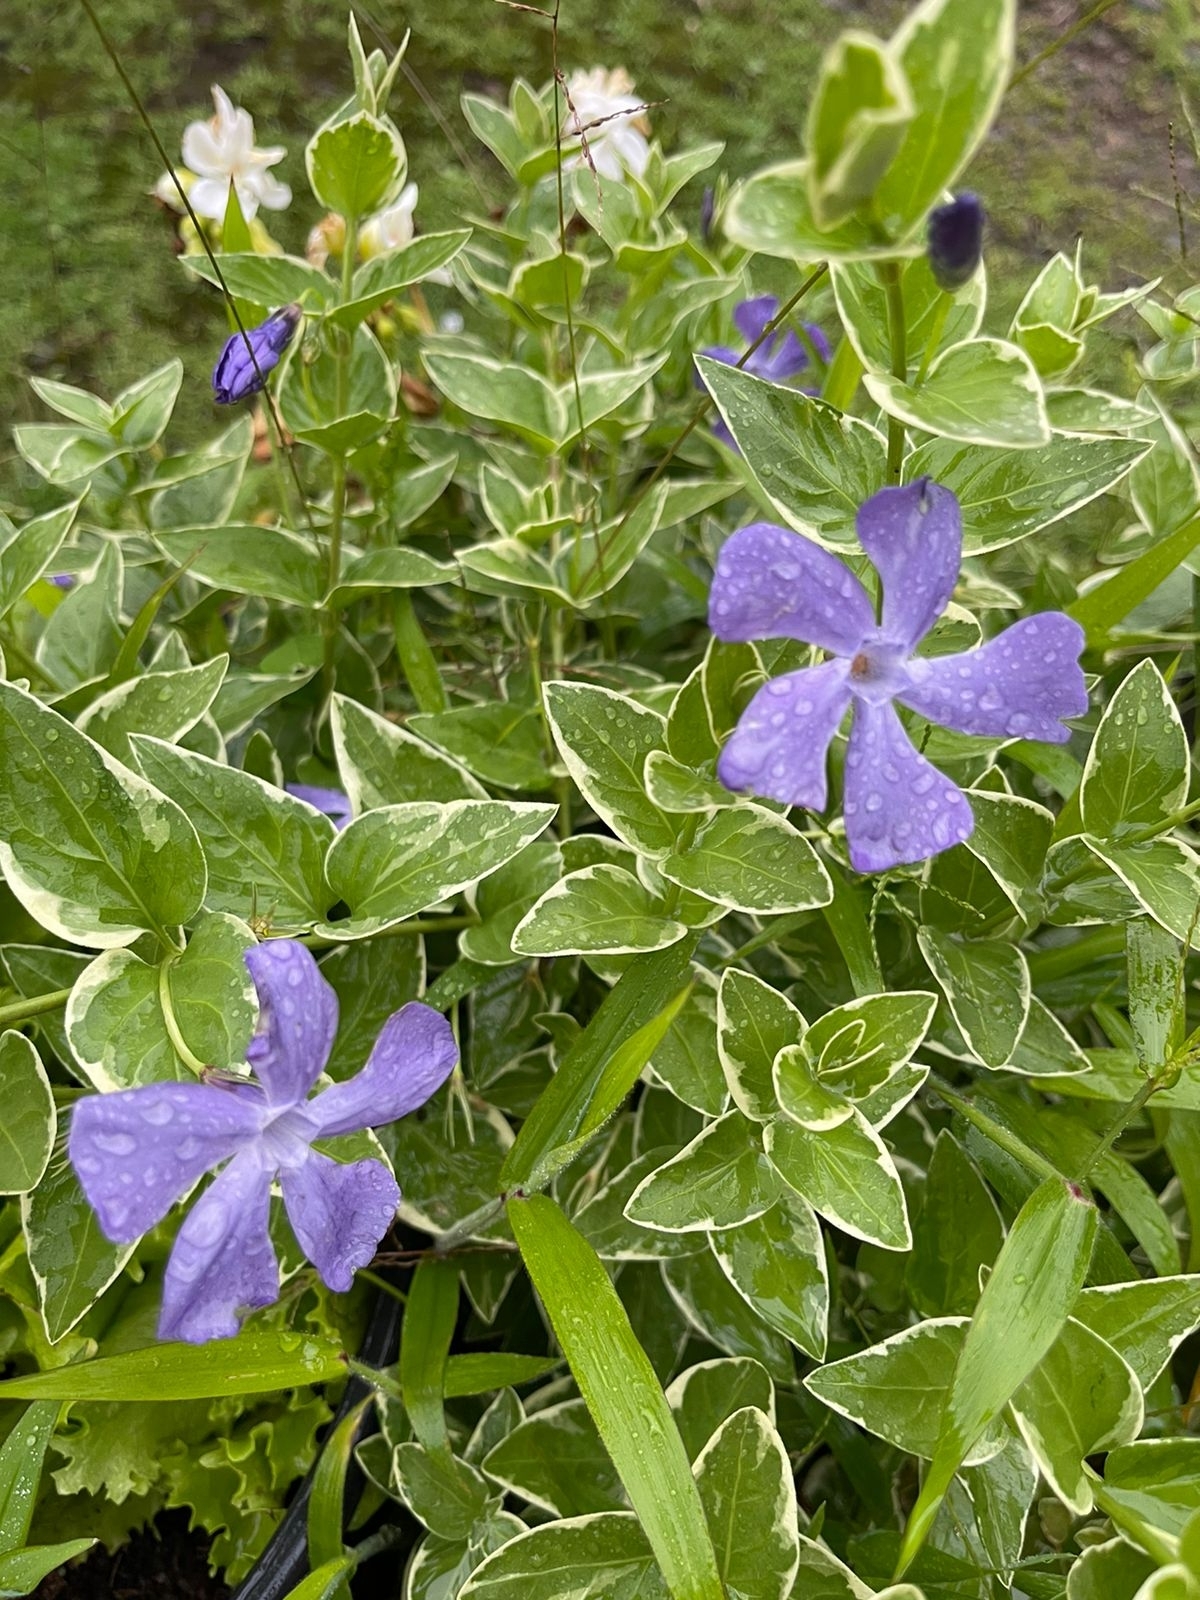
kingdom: Plantae
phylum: Tracheophyta
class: Magnoliopsida
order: Gentianales
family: Apocynaceae
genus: Vinca
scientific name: Vinca major
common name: Greater periwinkle
